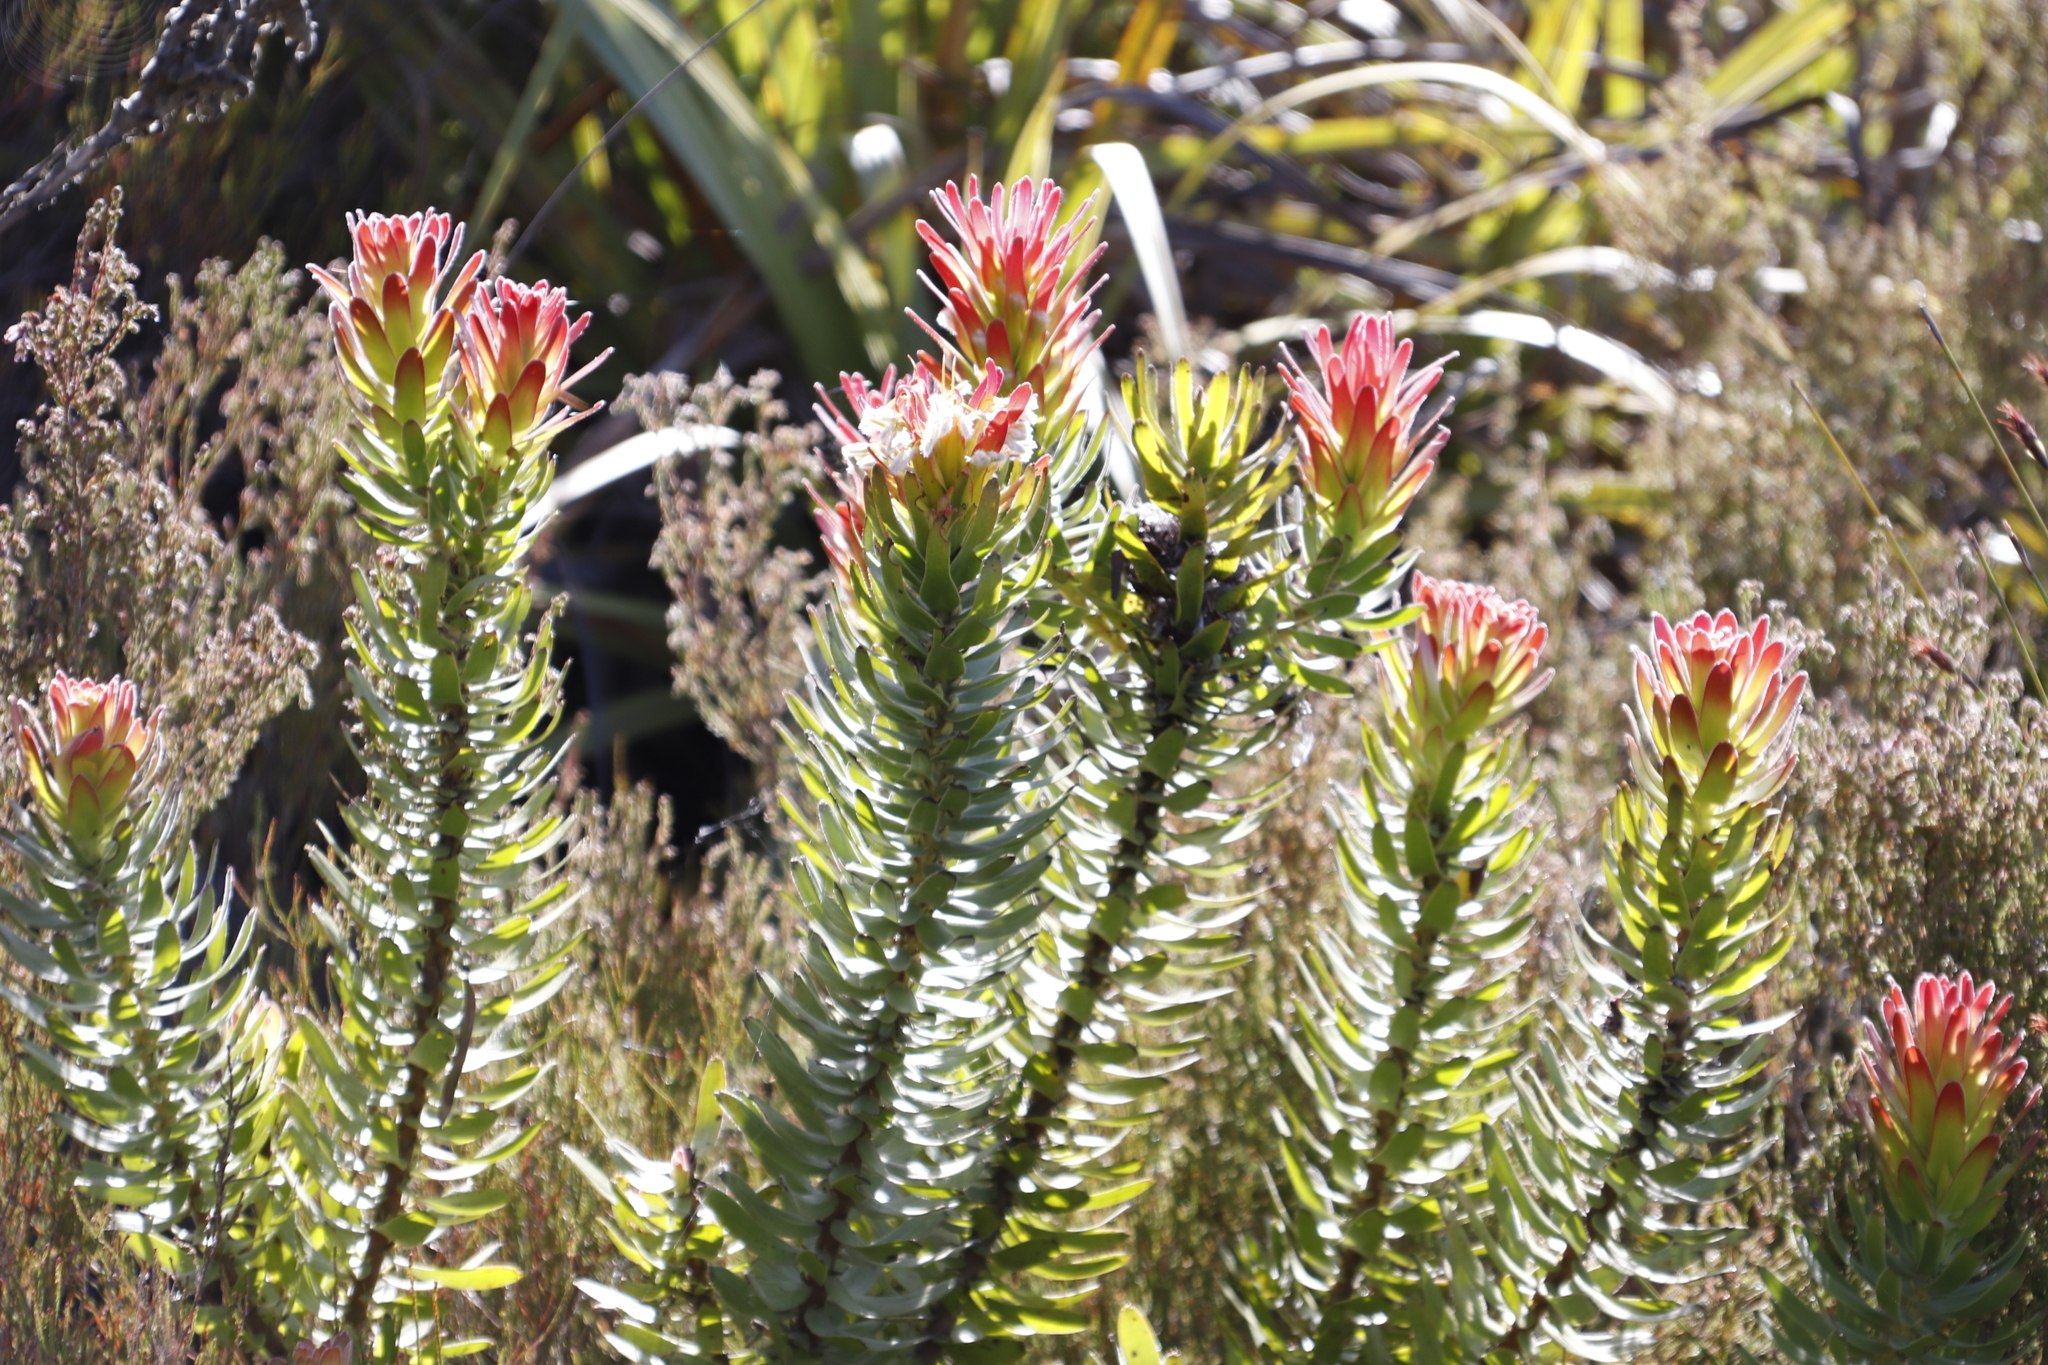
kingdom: Plantae
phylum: Tracheophyta
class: Magnoliopsida
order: Proteales
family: Proteaceae
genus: Mimetes
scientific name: Mimetes cucullatus
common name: Common pagoda
